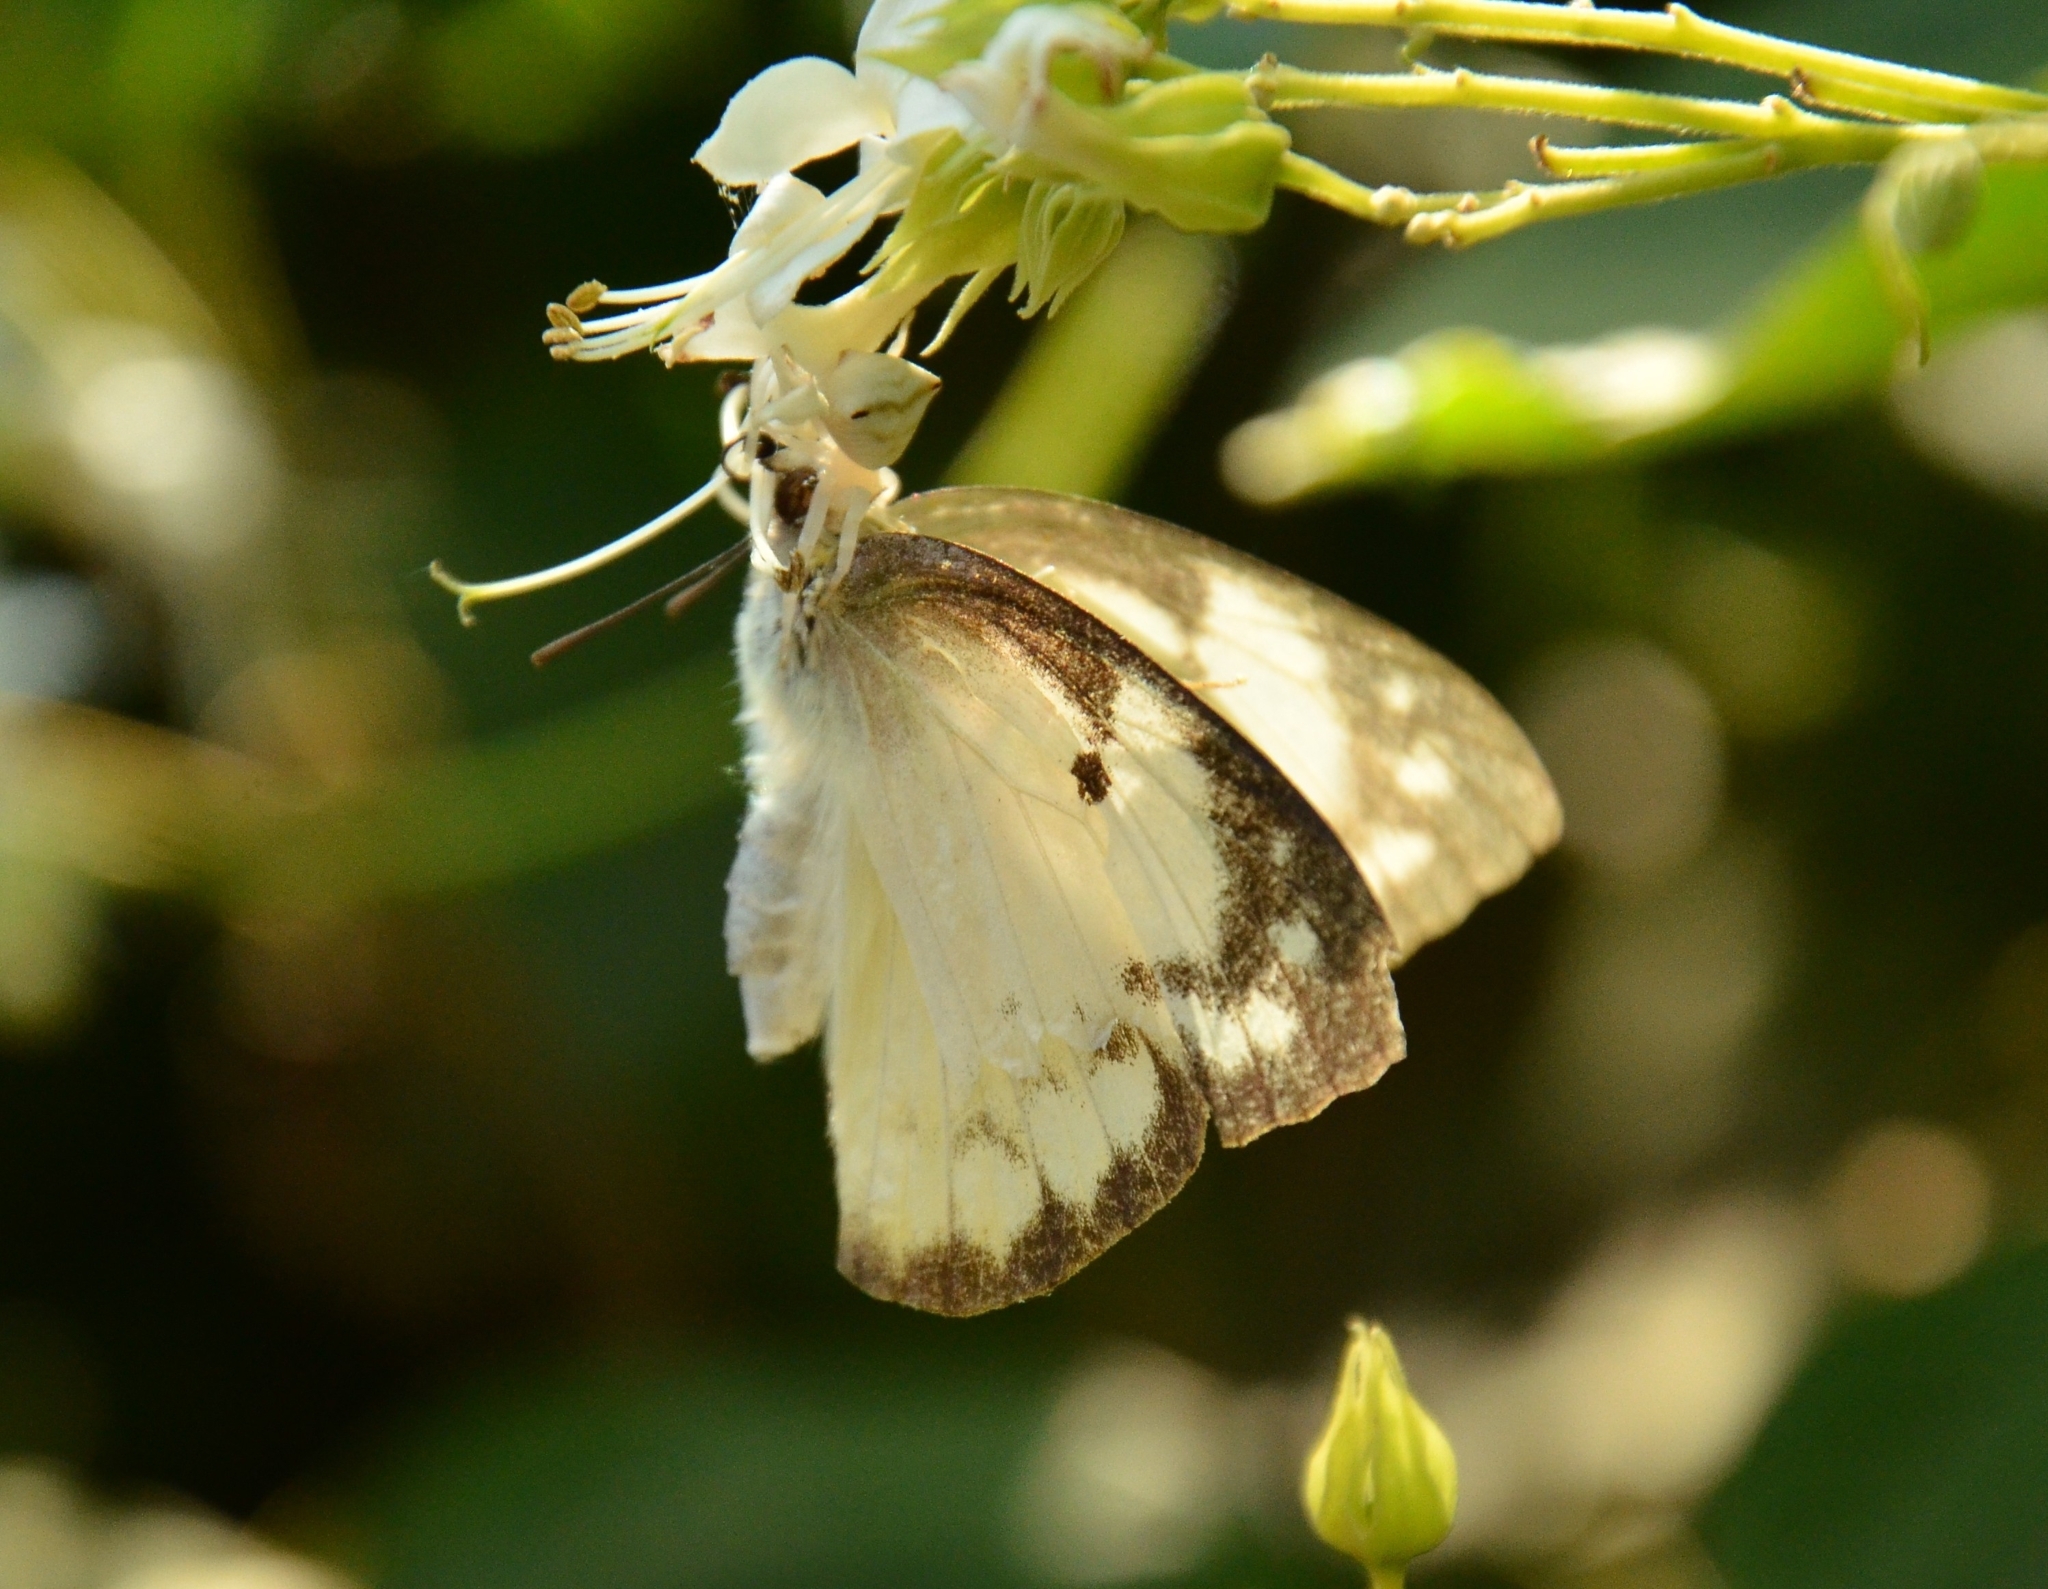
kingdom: Animalia
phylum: Arthropoda
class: Insecta
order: Lepidoptera
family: Pieridae
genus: Catopsilia
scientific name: Catopsilia pomona
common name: Common emigrant
